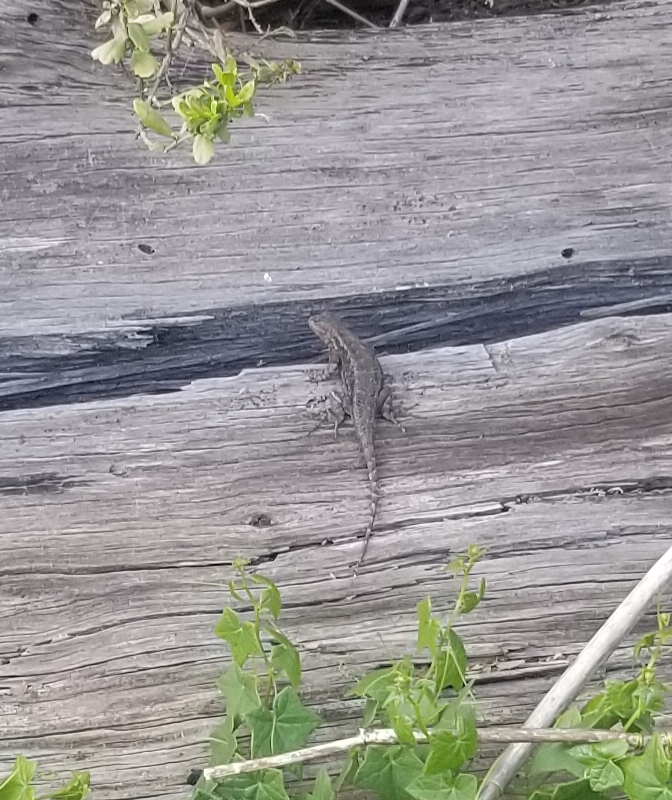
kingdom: Animalia
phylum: Chordata
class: Squamata
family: Phrynosomatidae
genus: Sceloporus
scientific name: Sceloporus occidentalis
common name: Western fence lizard
